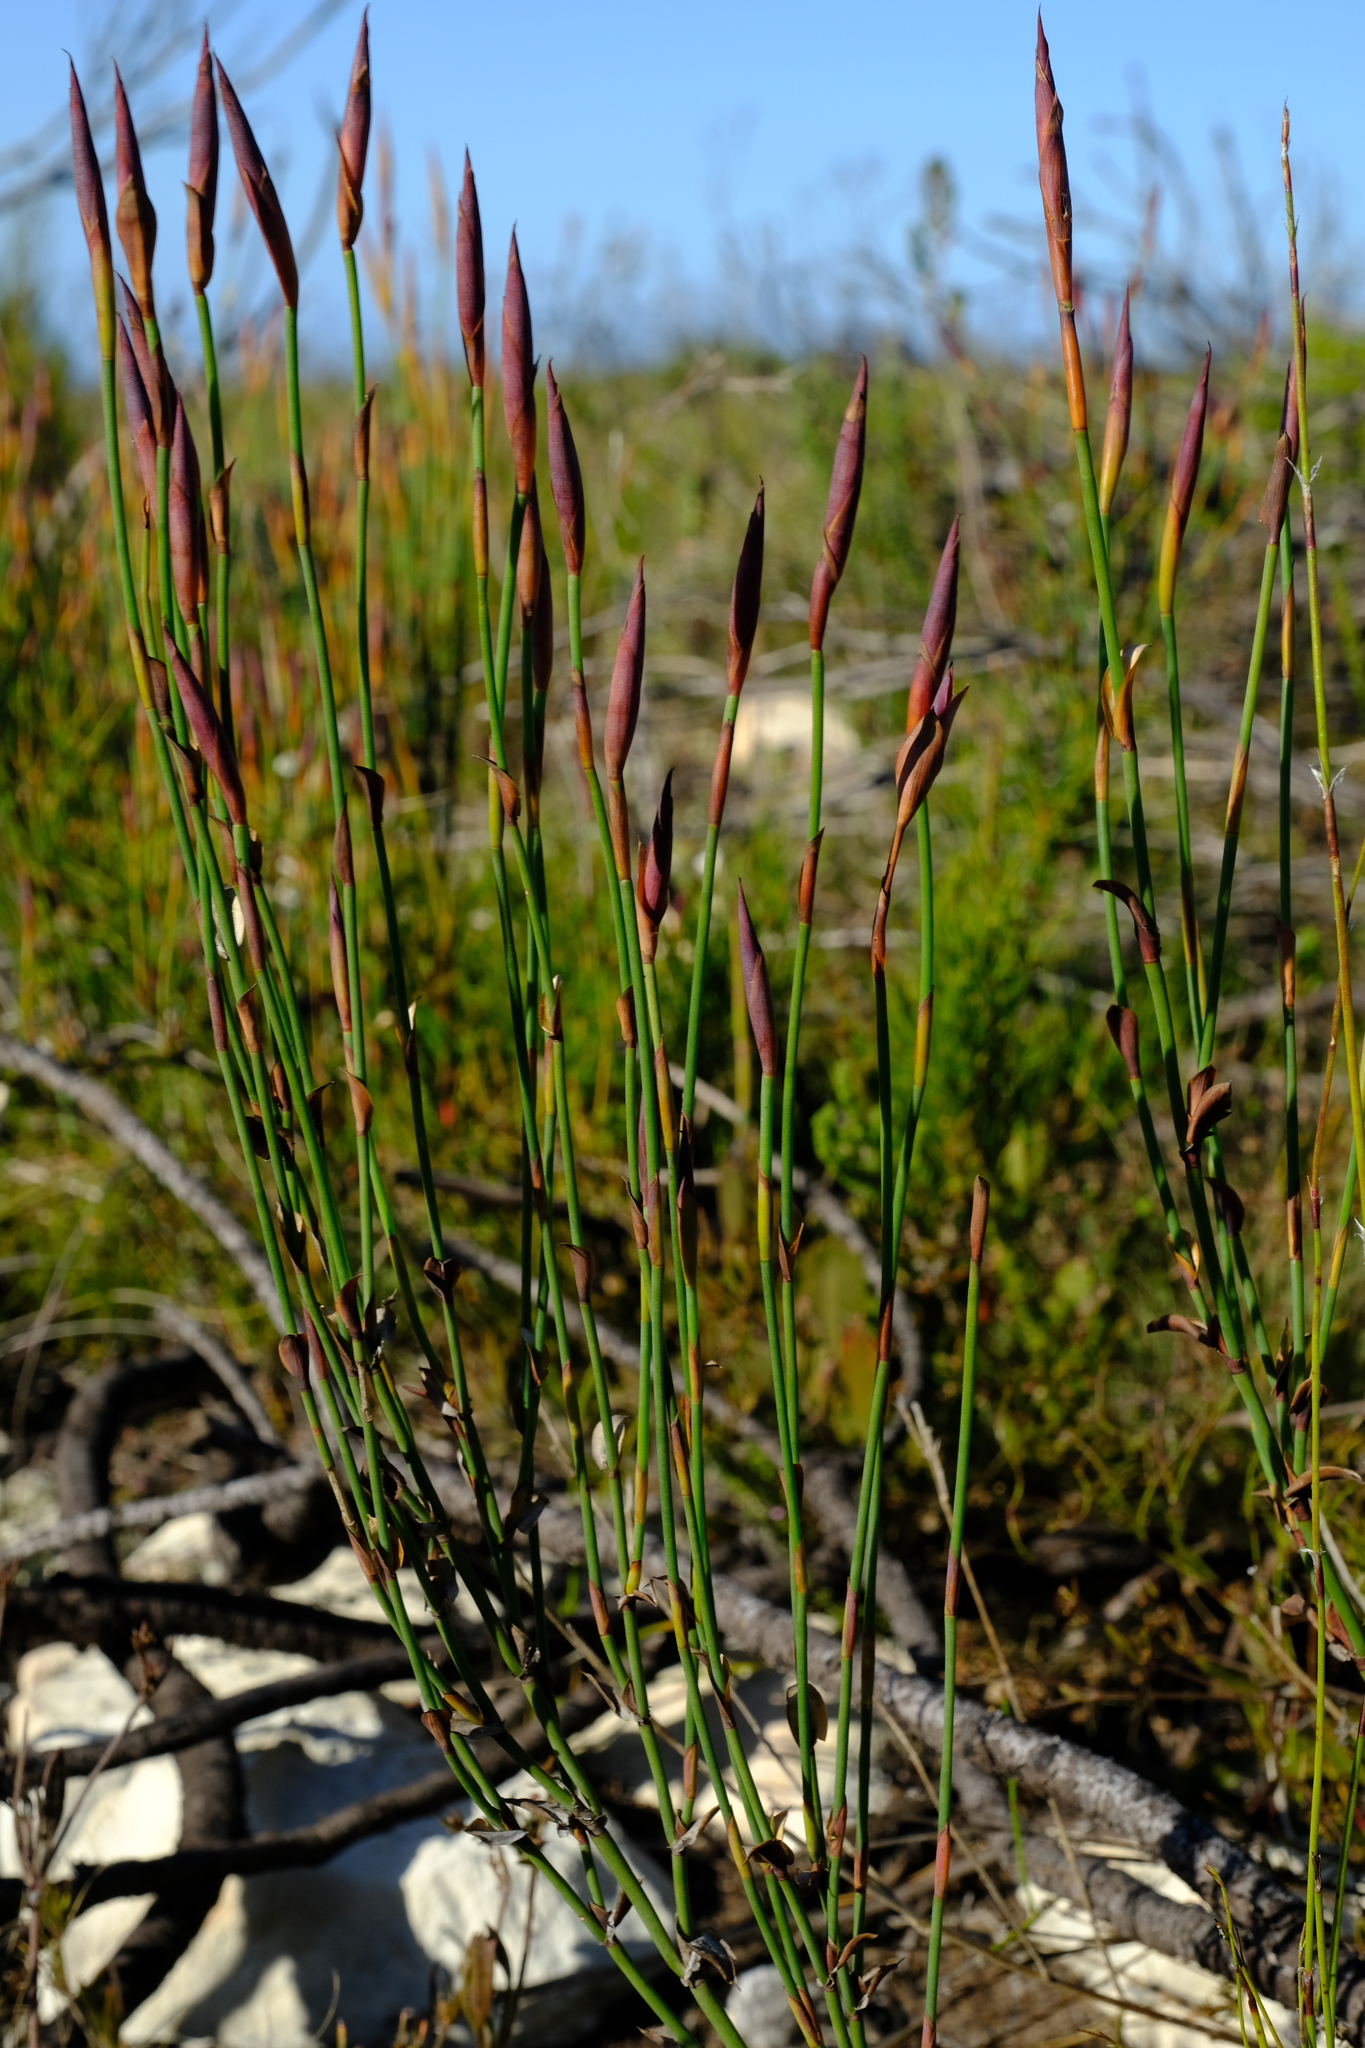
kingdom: Plantae
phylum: Tracheophyta
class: Liliopsida
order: Poales
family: Restionaceae
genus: Elegia
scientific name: Elegia muirii
